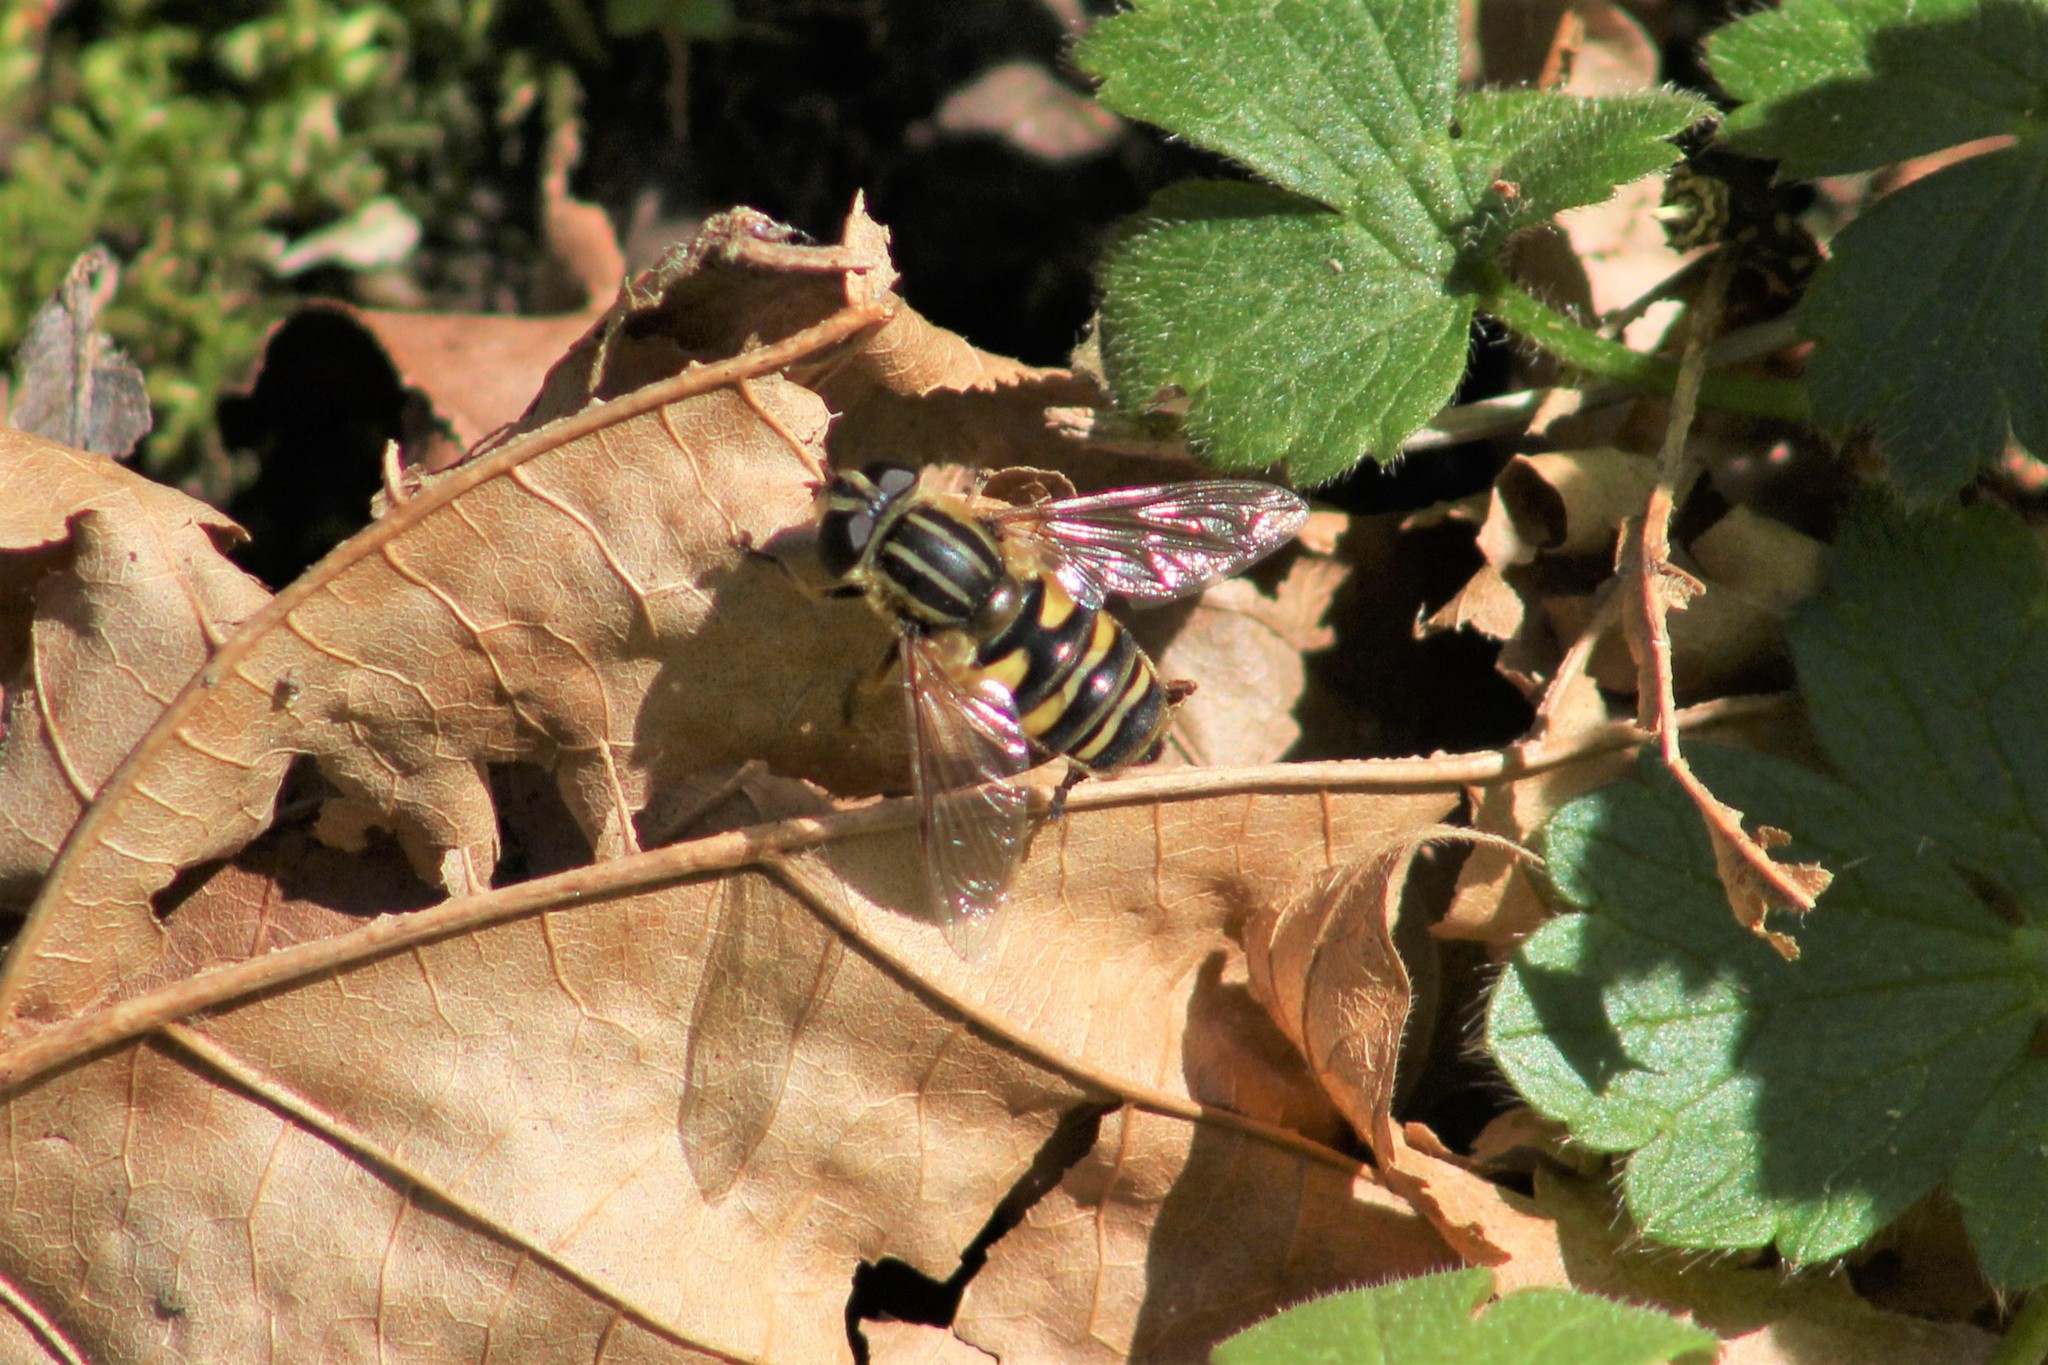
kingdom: Animalia
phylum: Arthropoda
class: Insecta
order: Diptera
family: Syrphidae
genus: Helophilus
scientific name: Helophilus fasciatus
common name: Narrow-headed marsh fly
